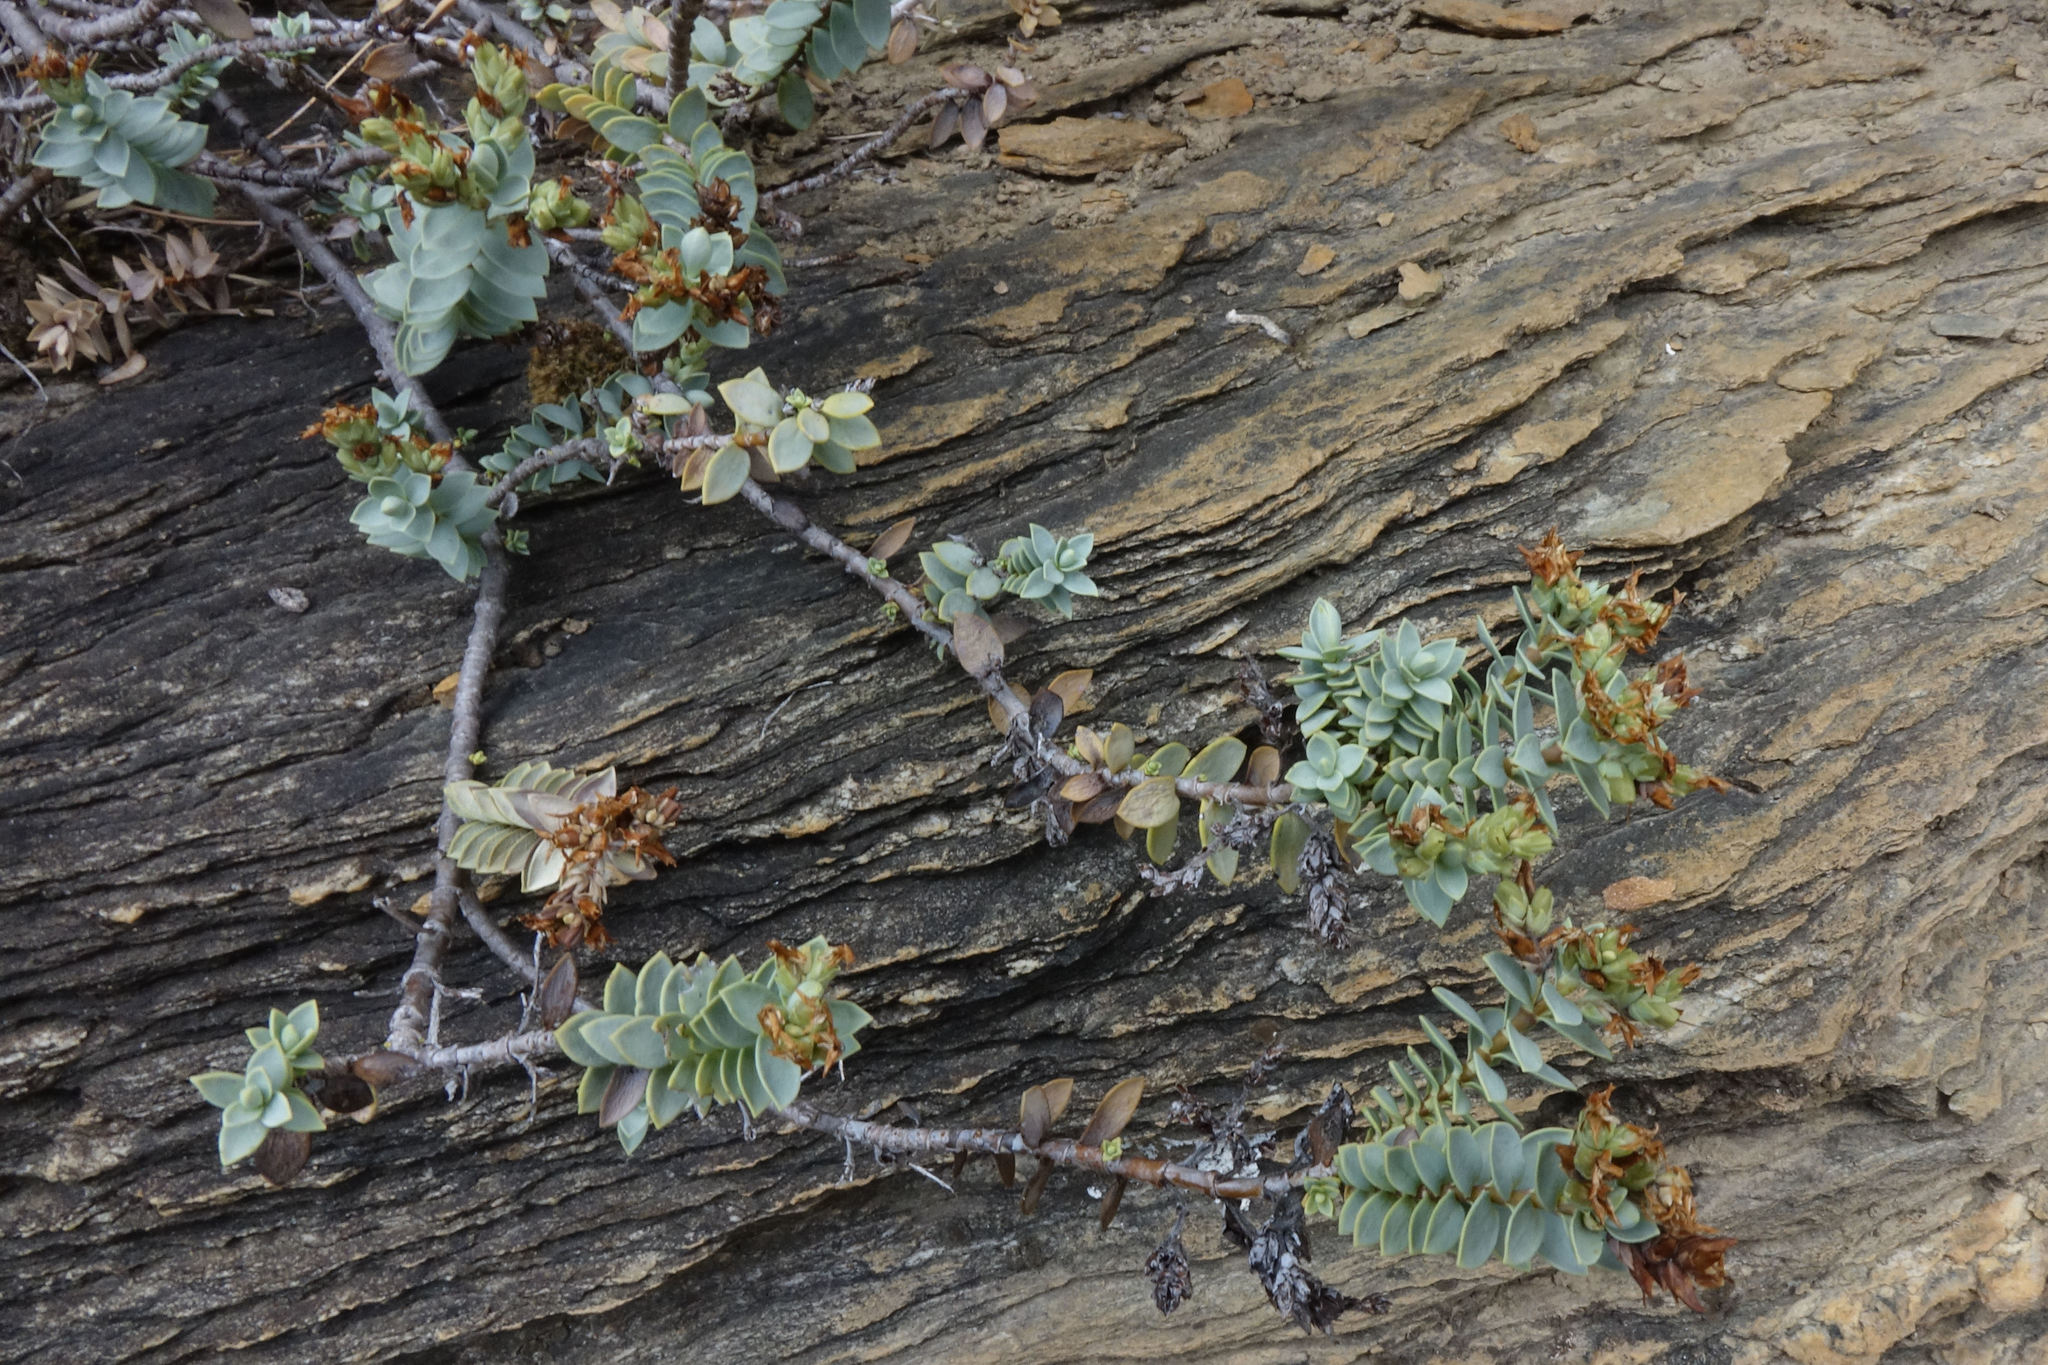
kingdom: Plantae
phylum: Tracheophyta
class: Magnoliopsida
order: Lamiales
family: Plantaginaceae
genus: Veronica
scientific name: Veronica pimeleoides
